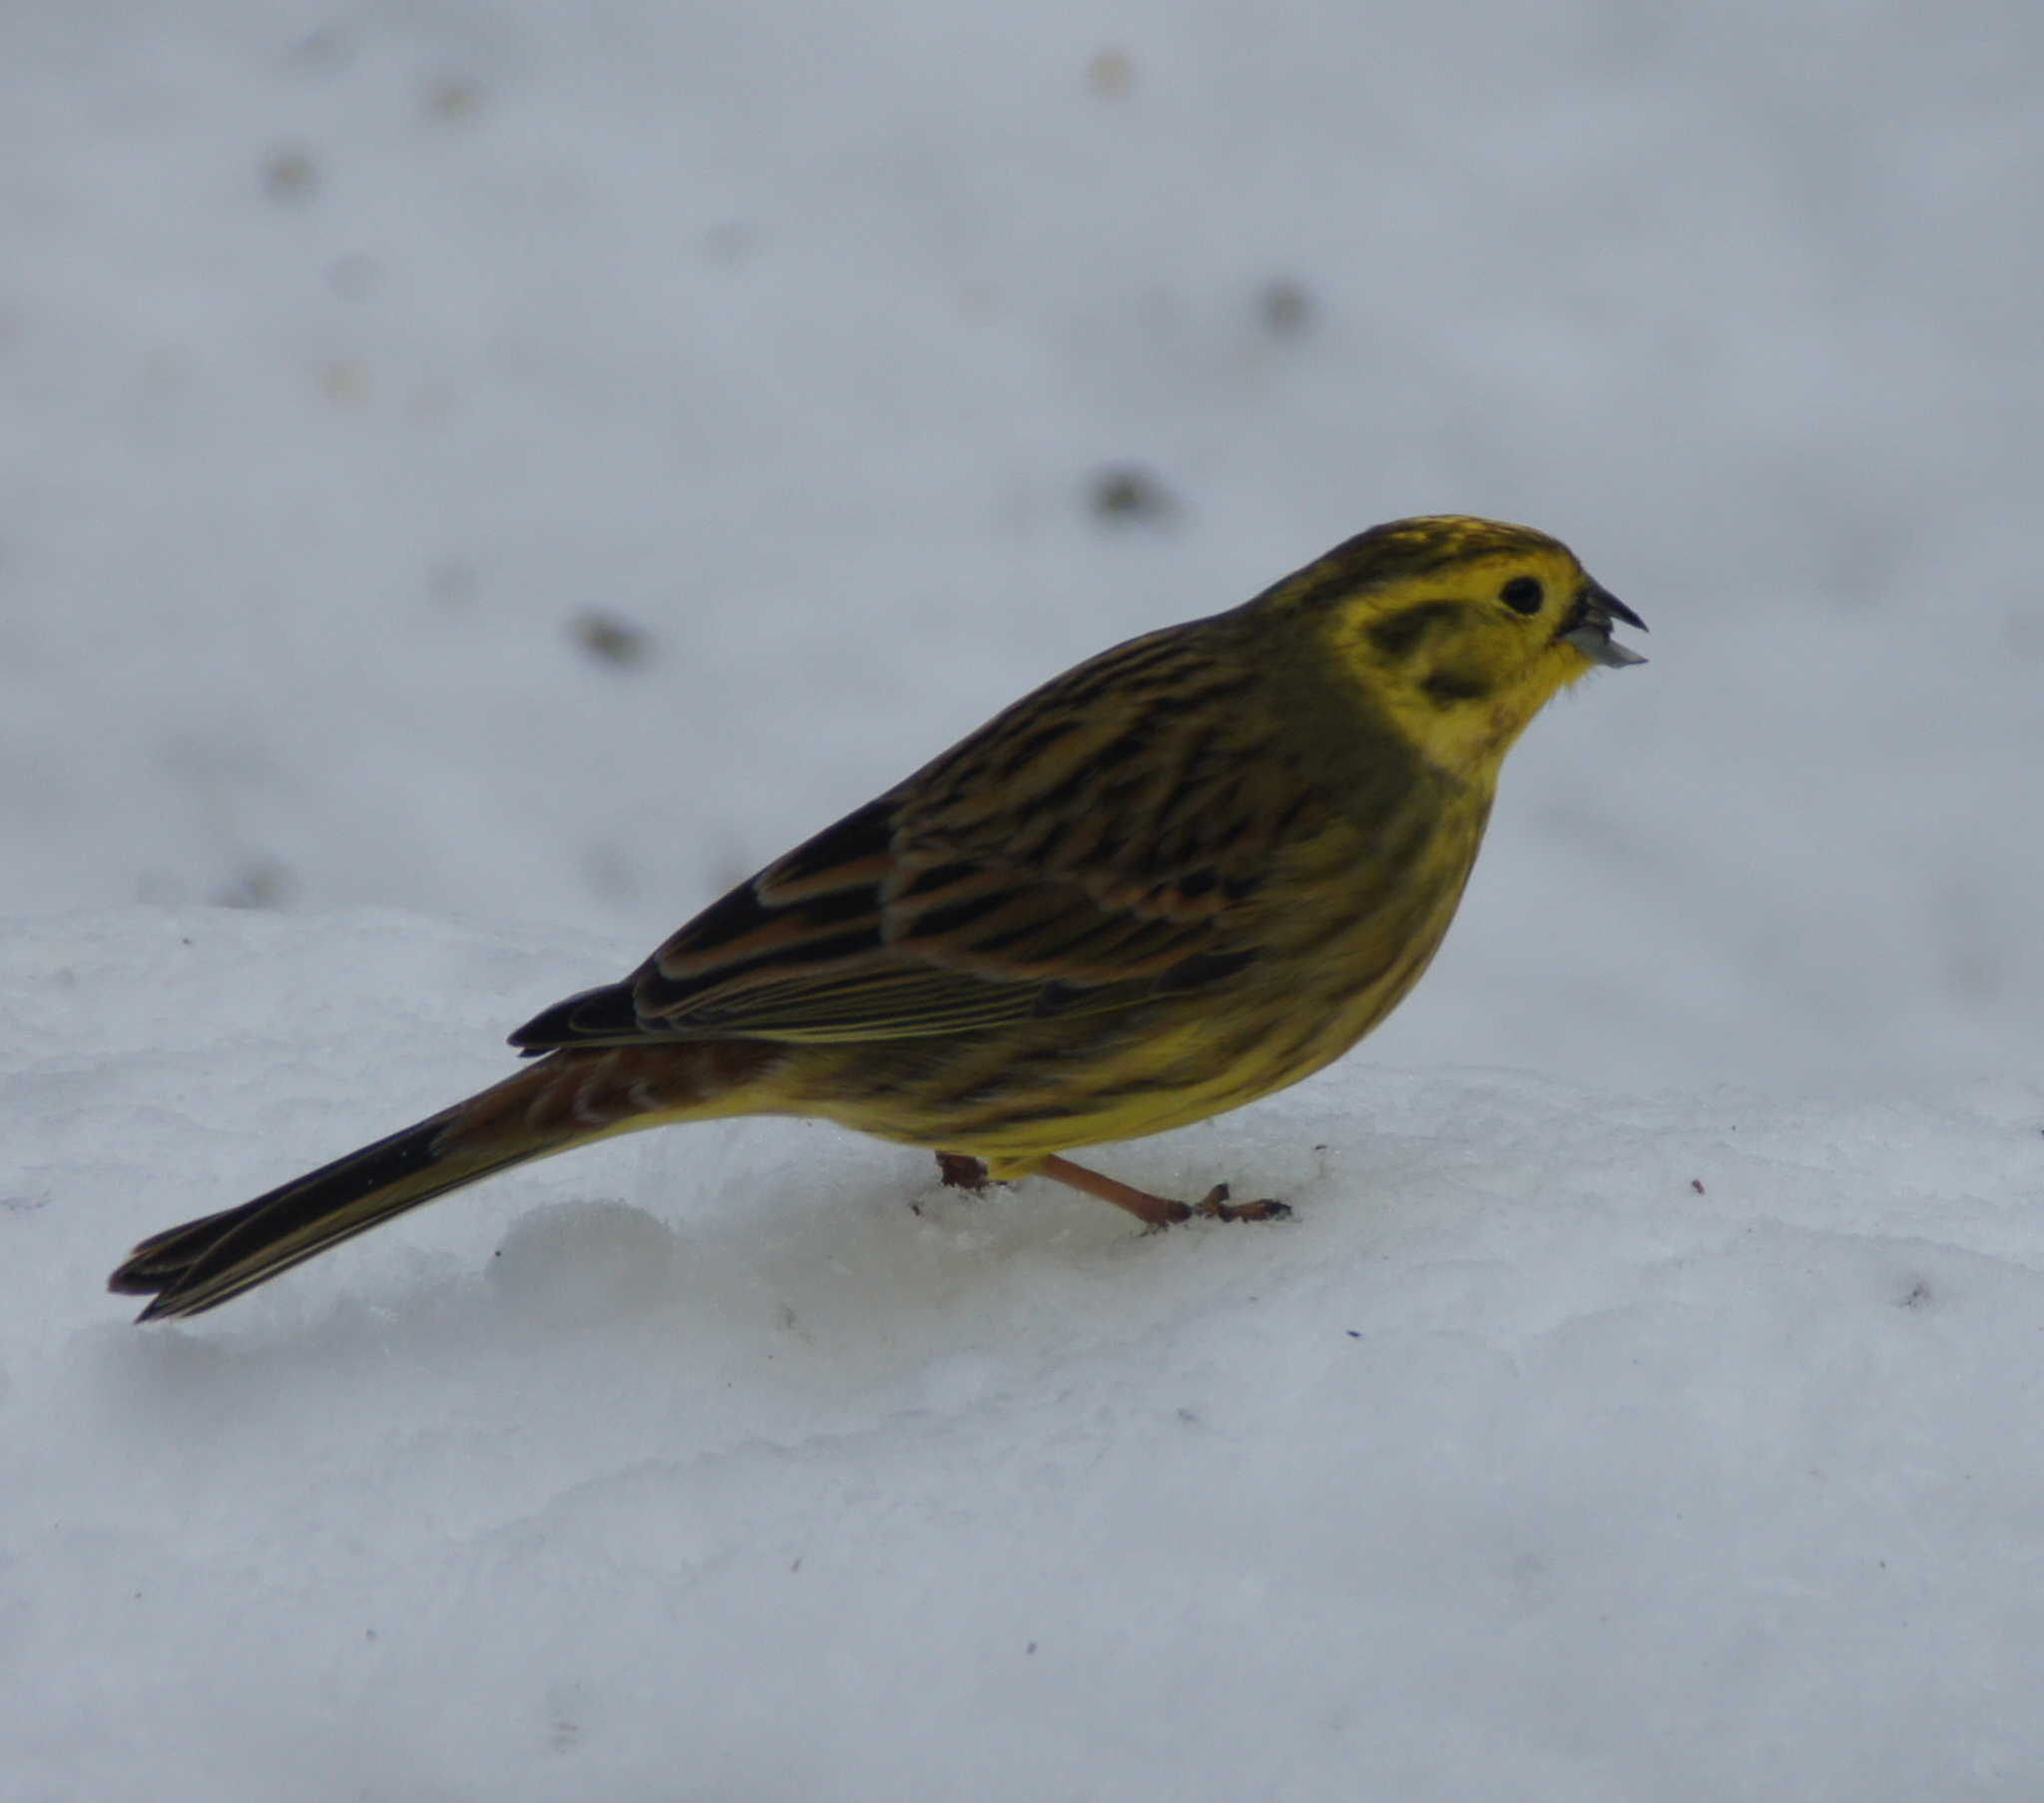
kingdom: Animalia
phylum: Chordata
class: Aves
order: Passeriformes
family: Emberizidae
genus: Emberiza
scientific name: Emberiza citrinella
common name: Yellowhammer
